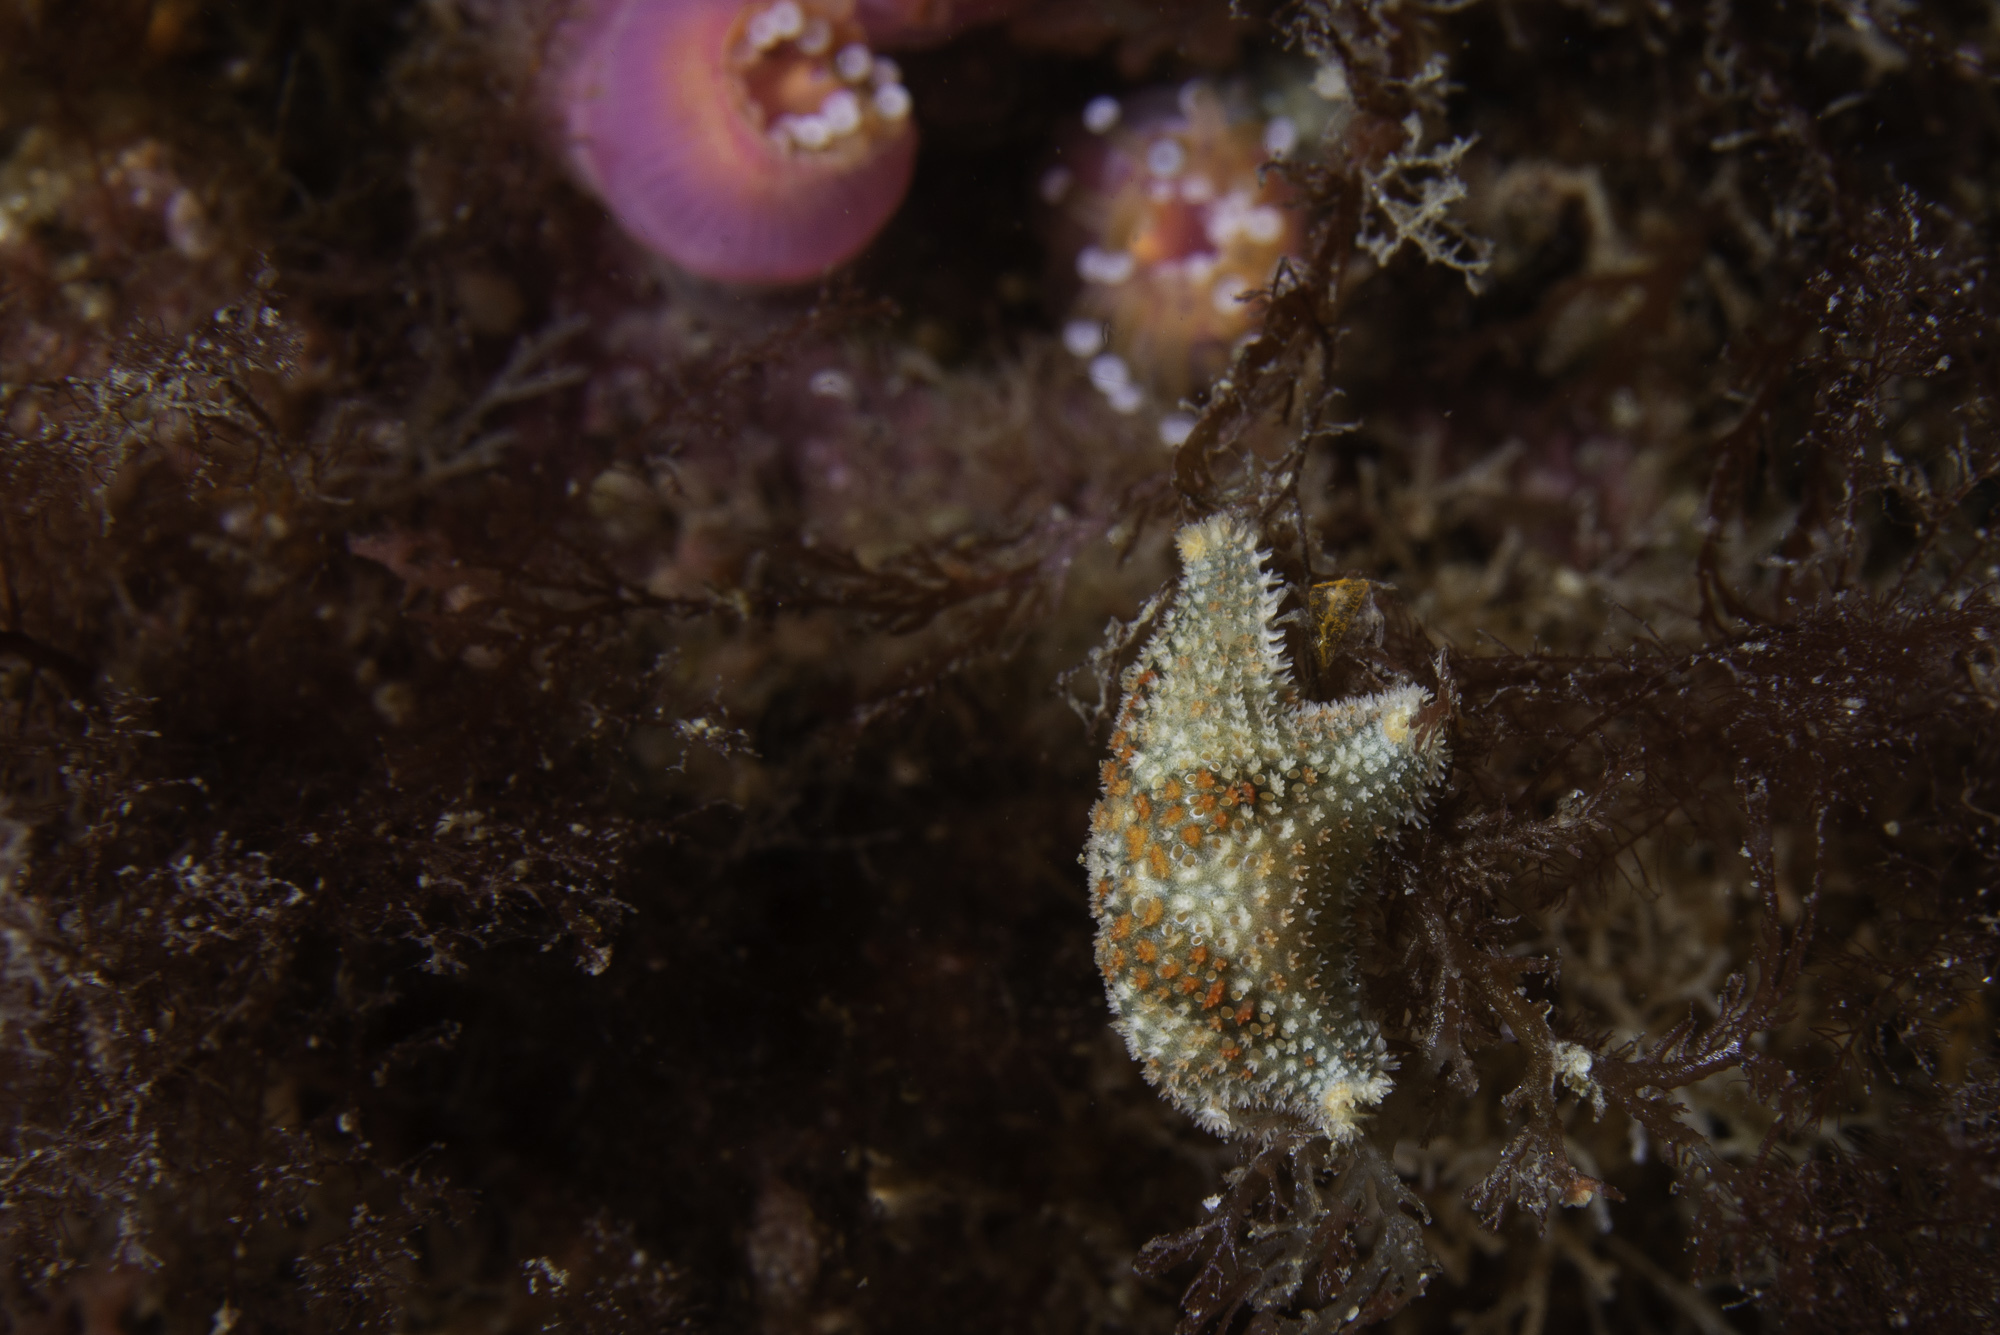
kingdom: Animalia
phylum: Echinodermata
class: Asteroidea
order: Valvatida
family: Asterinidae
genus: Asterina
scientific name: Asterina phylactica
